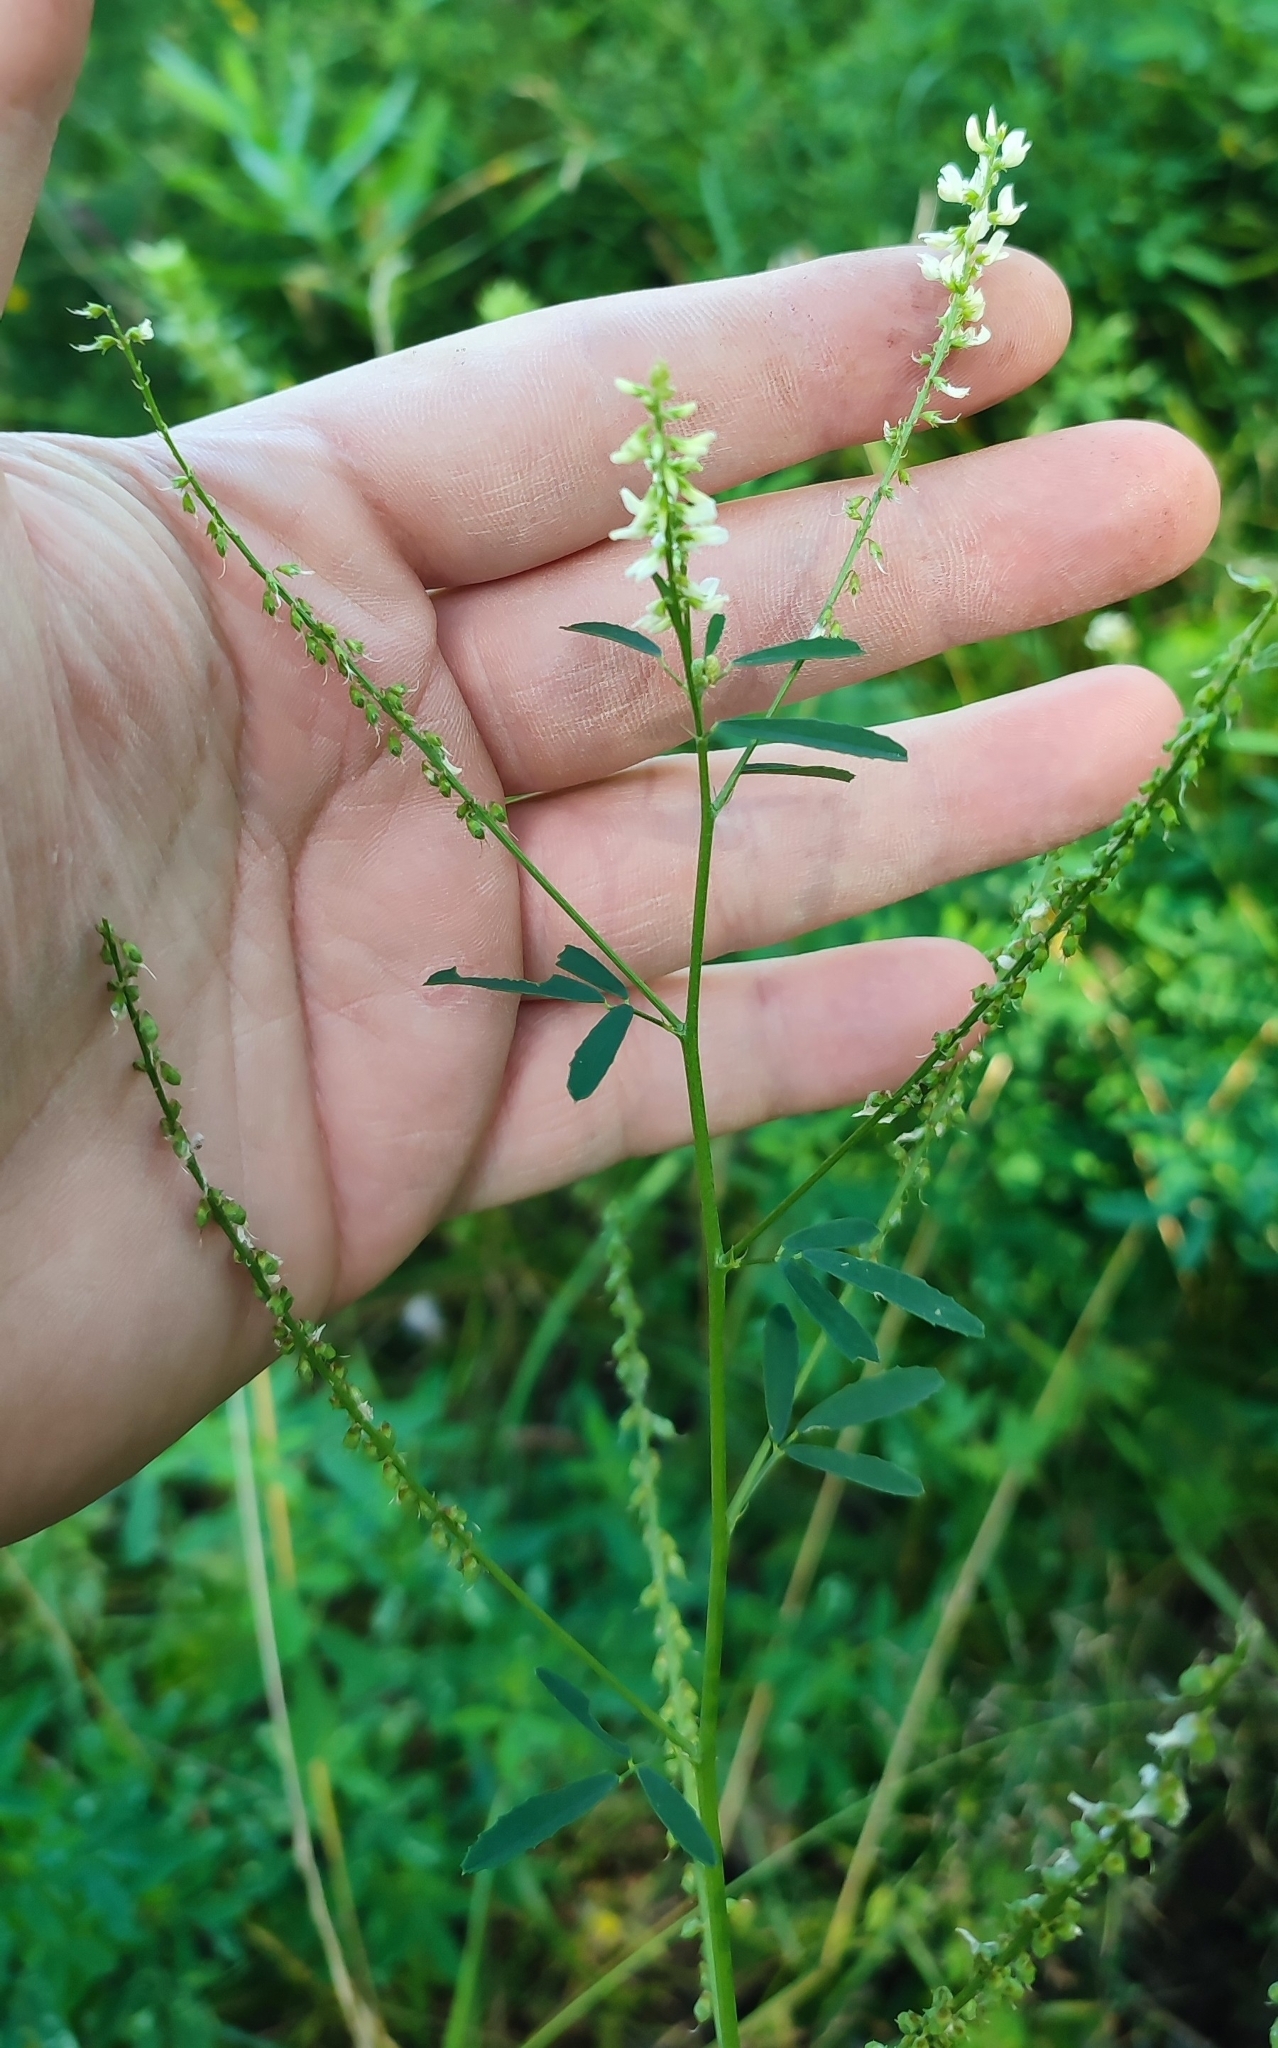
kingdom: Plantae
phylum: Tracheophyta
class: Magnoliopsida
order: Fabales
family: Fabaceae
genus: Melilotus
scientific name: Melilotus albus
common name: White melilot
